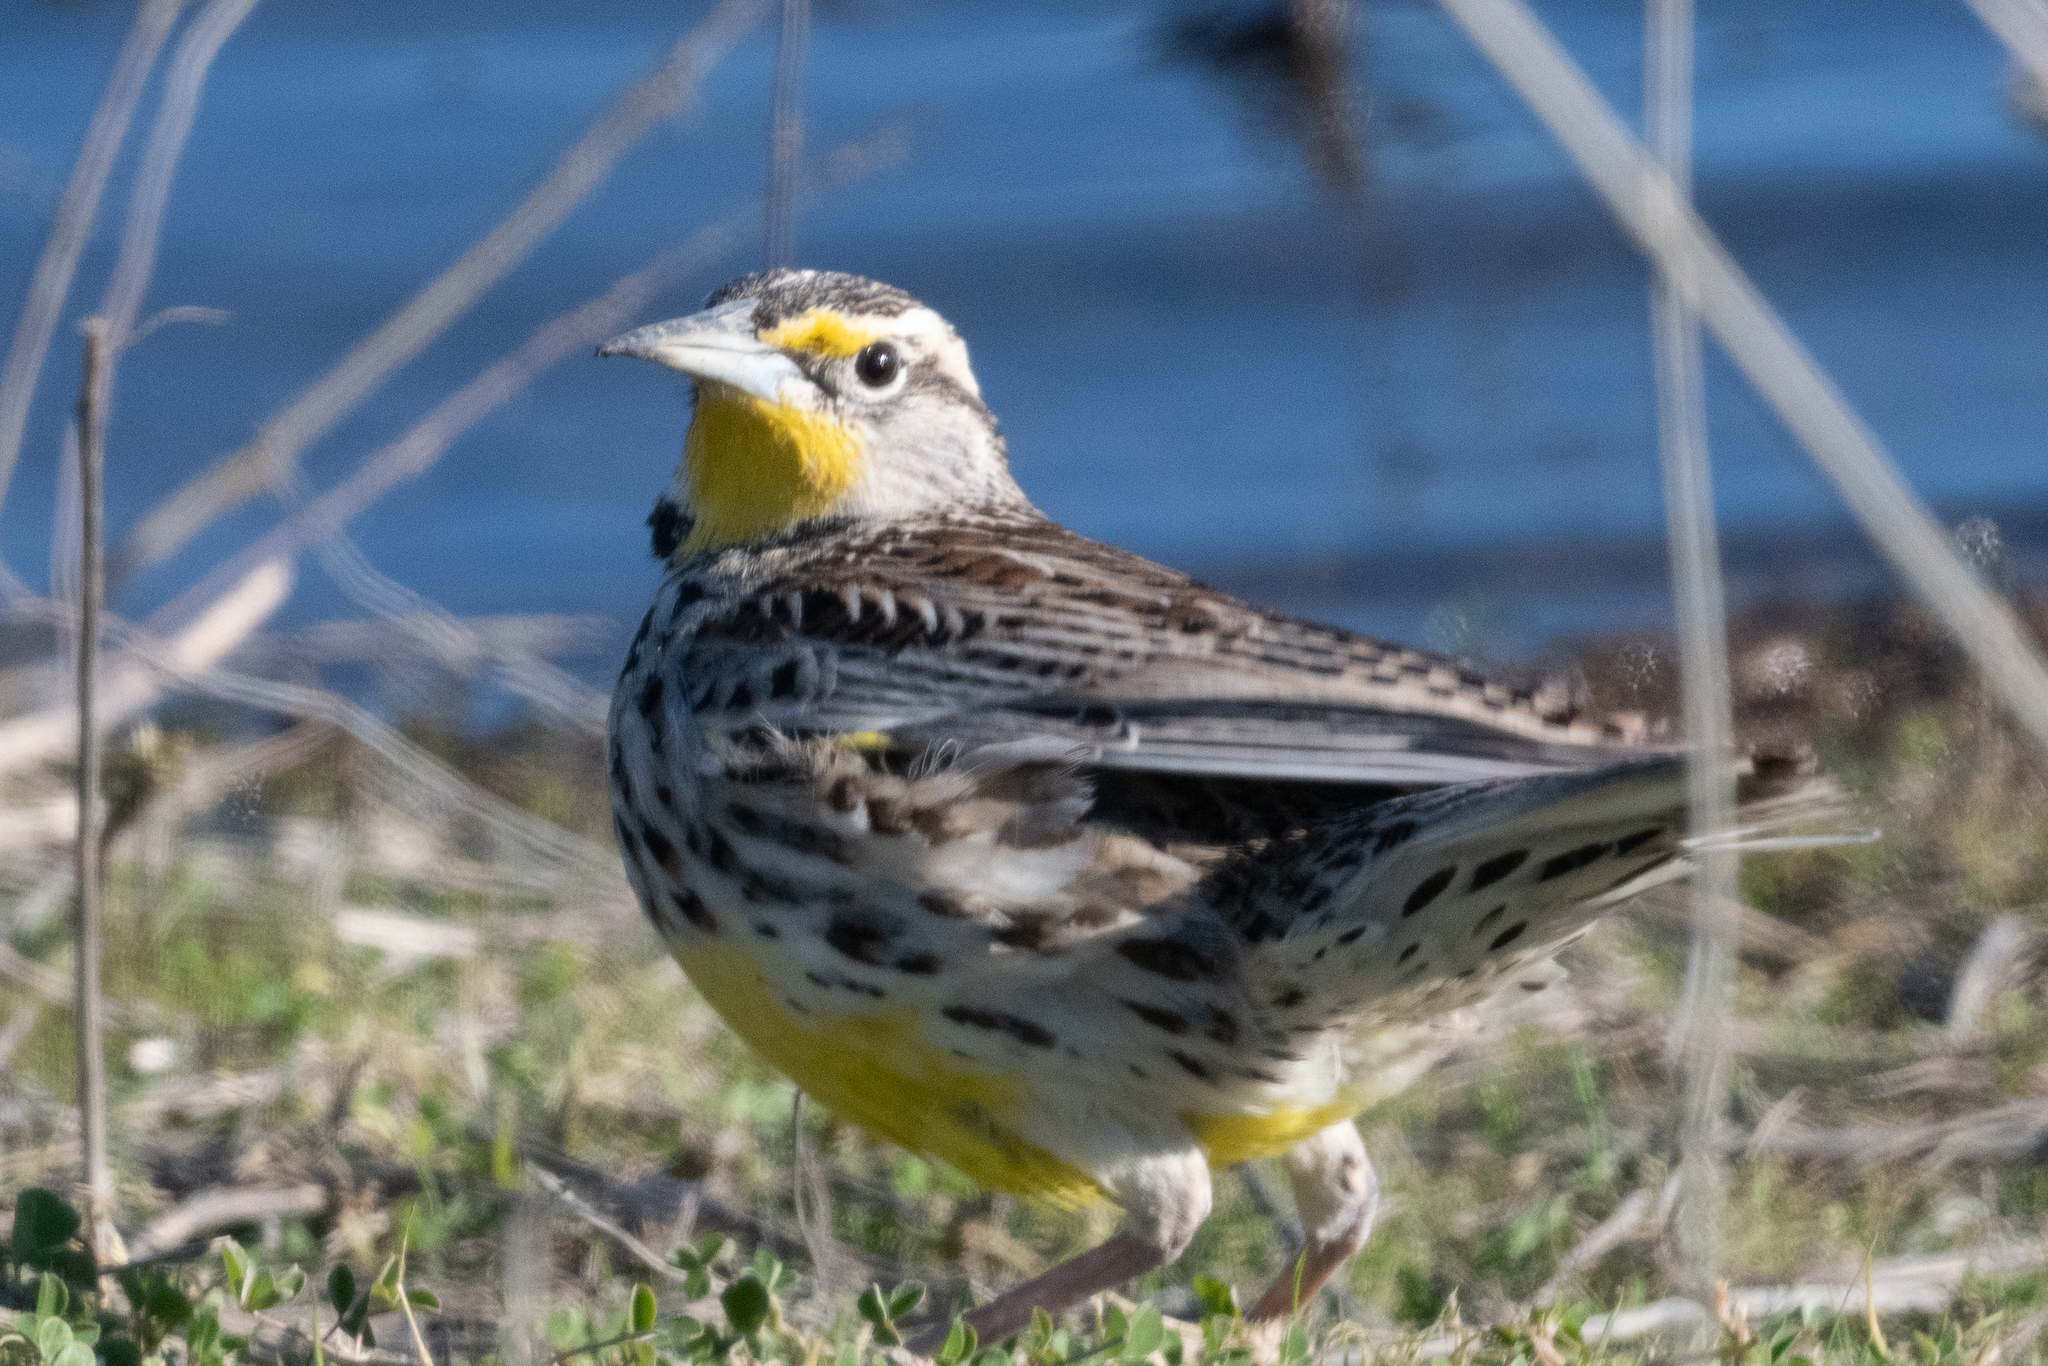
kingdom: Animalia
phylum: Chordata
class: Aves
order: Passeriformes
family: Icteridae
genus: Sturnella
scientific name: Sturnella neglecta
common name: Western meadowlark
